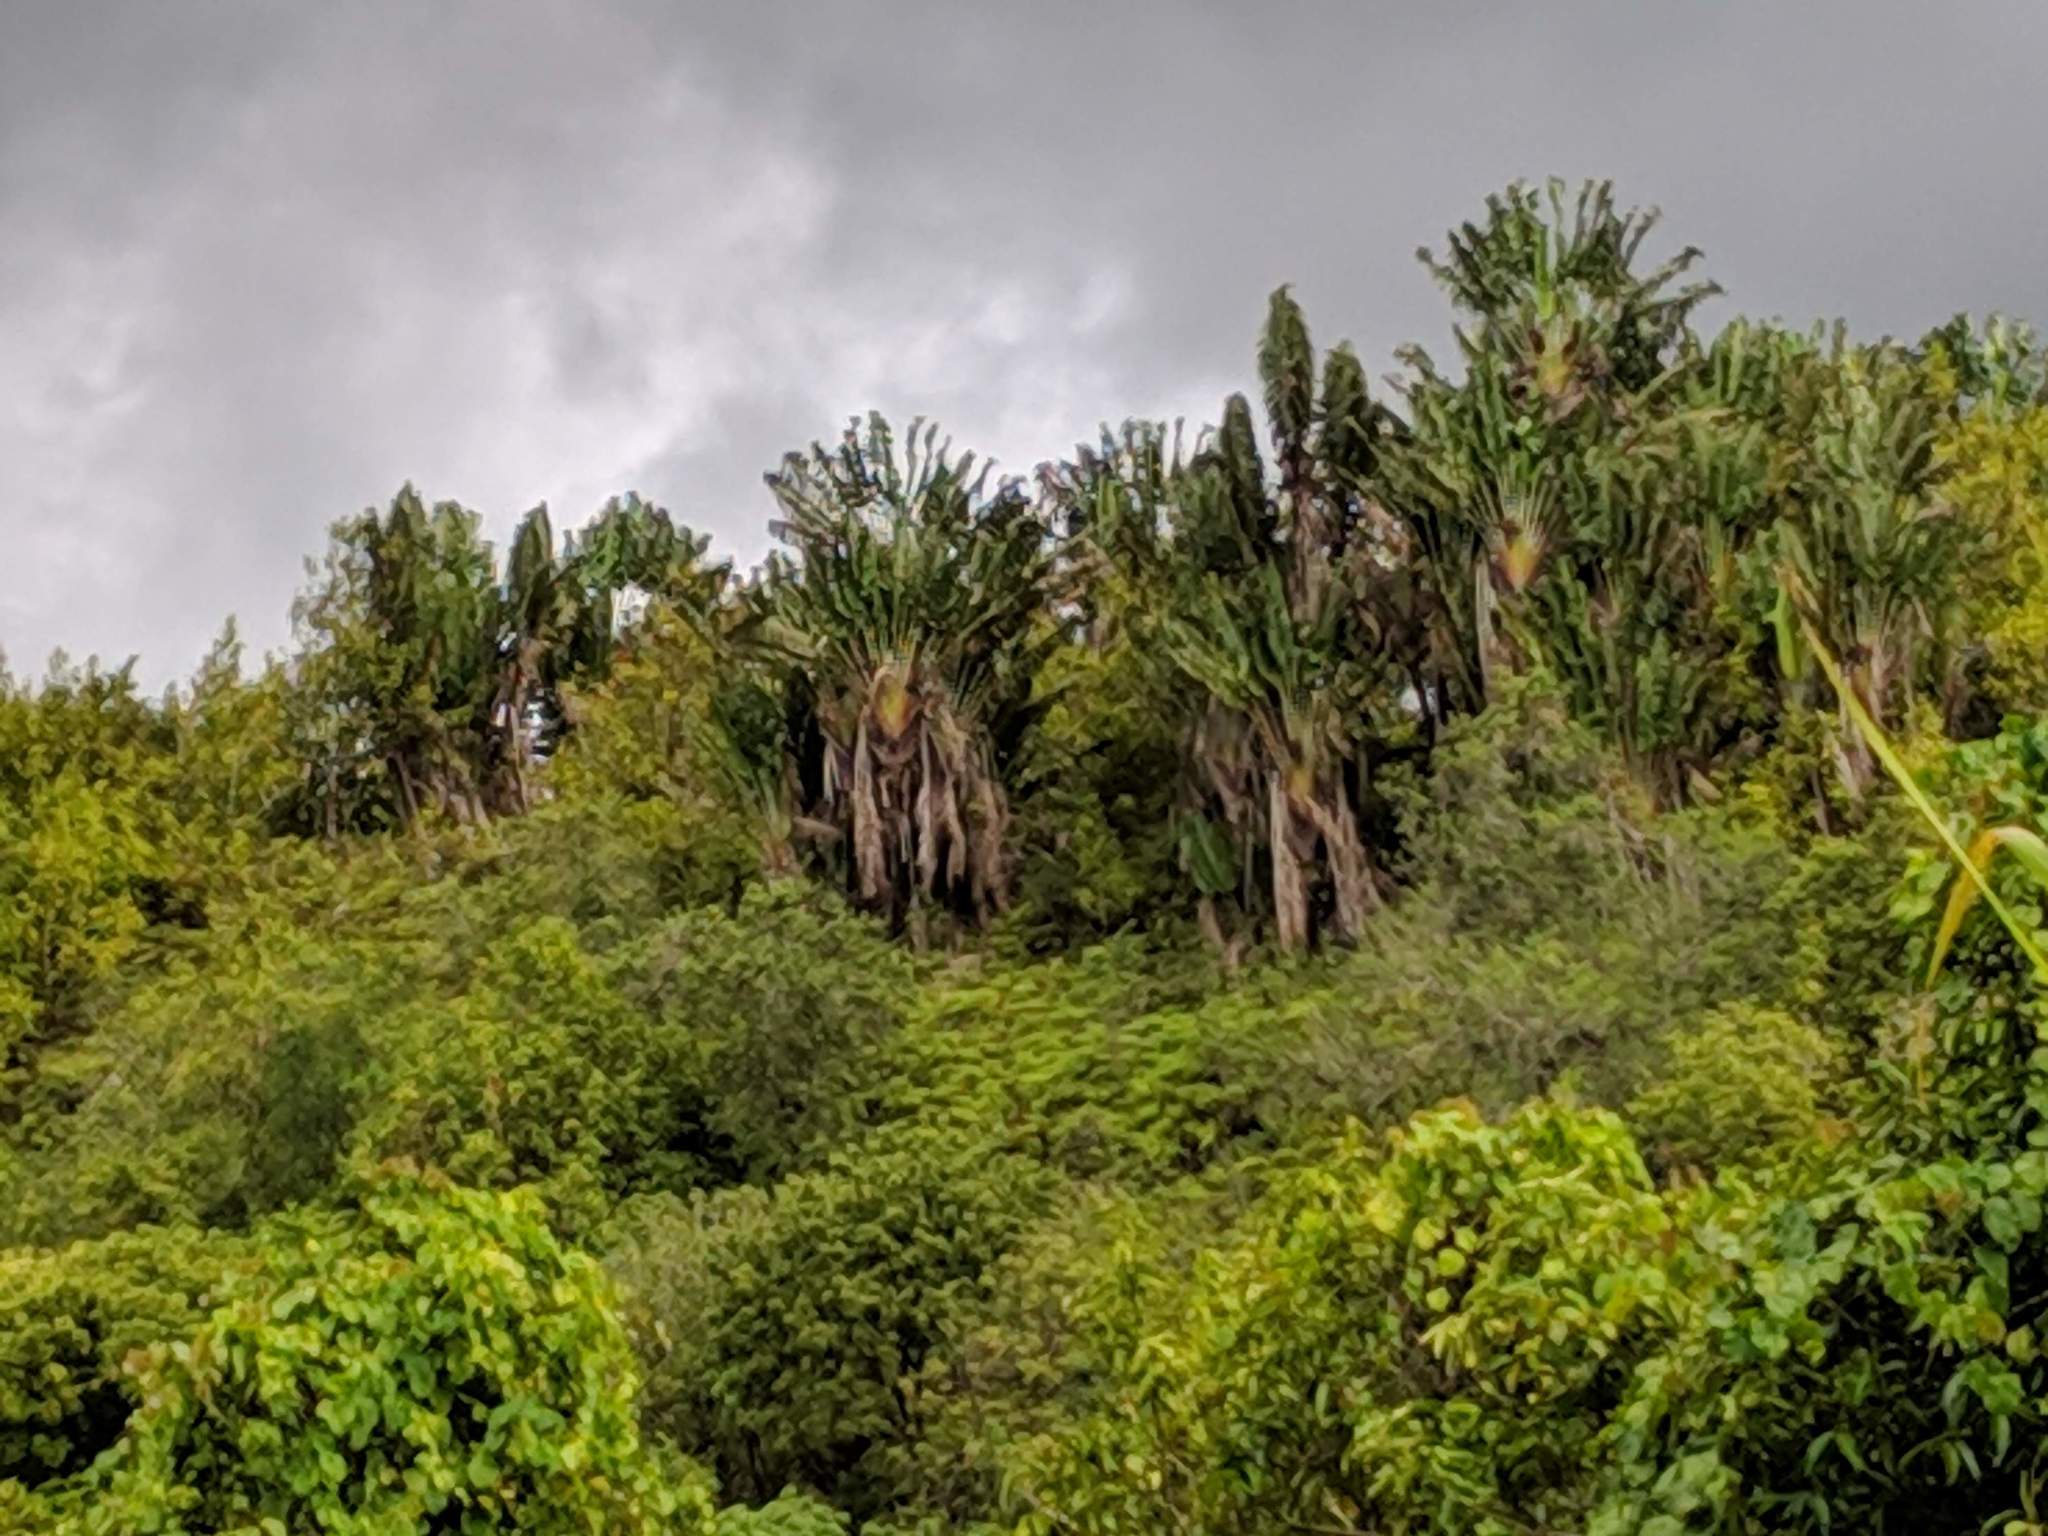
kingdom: Plantae
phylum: Tracheophyta
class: Liliopsida
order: Zingiberales
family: Strelitziaceae
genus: Ravenala
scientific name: Ravenala madagascariensis
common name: Traveler's-palm
